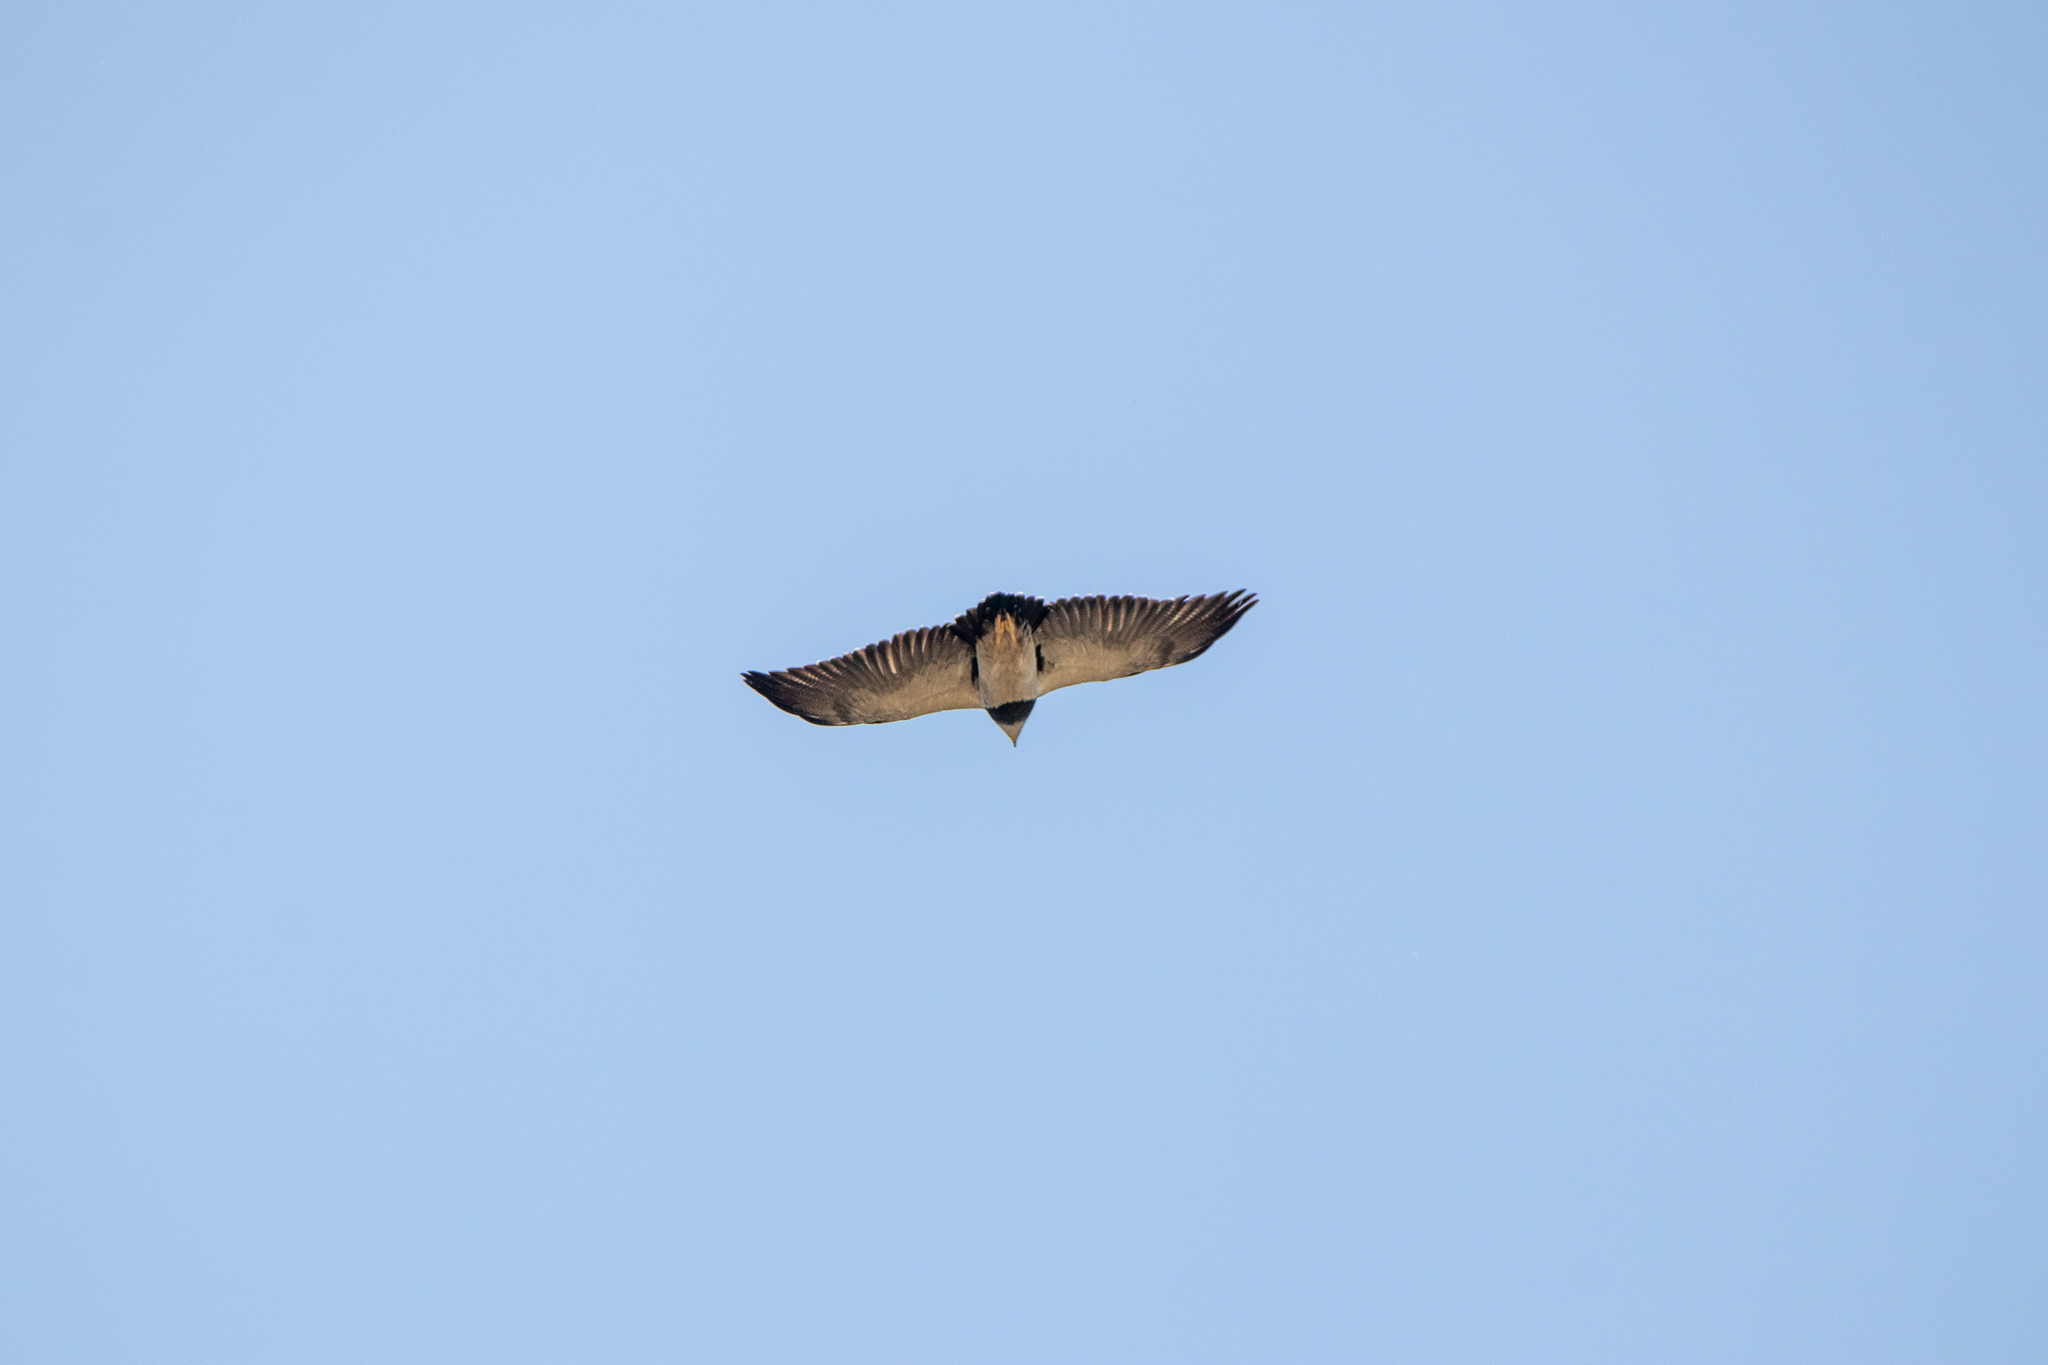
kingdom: Animalia
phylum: Chordata
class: Aves
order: Accipitriformes
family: Accipitridae
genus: Geranoaetus
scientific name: Geranoaetus melanoleucus
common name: Black-chested buzzard-eagle
